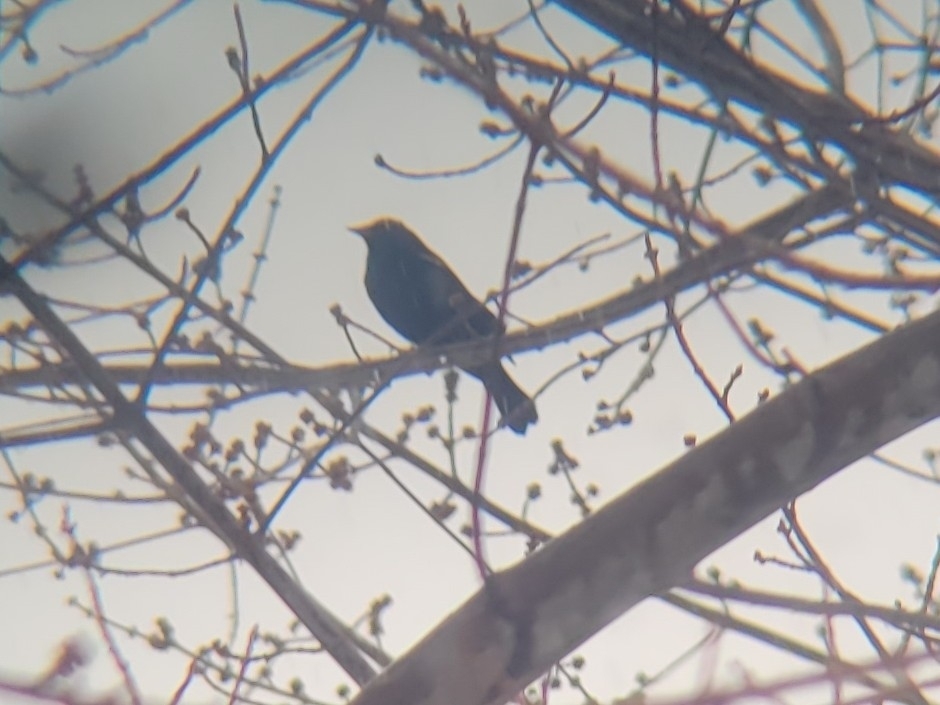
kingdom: Animalia
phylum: Chordata
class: Aves
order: Passeriformes
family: Icteridae
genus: Agelaius
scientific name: Agelaius phoeniceus
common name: Red-winged blackbird
